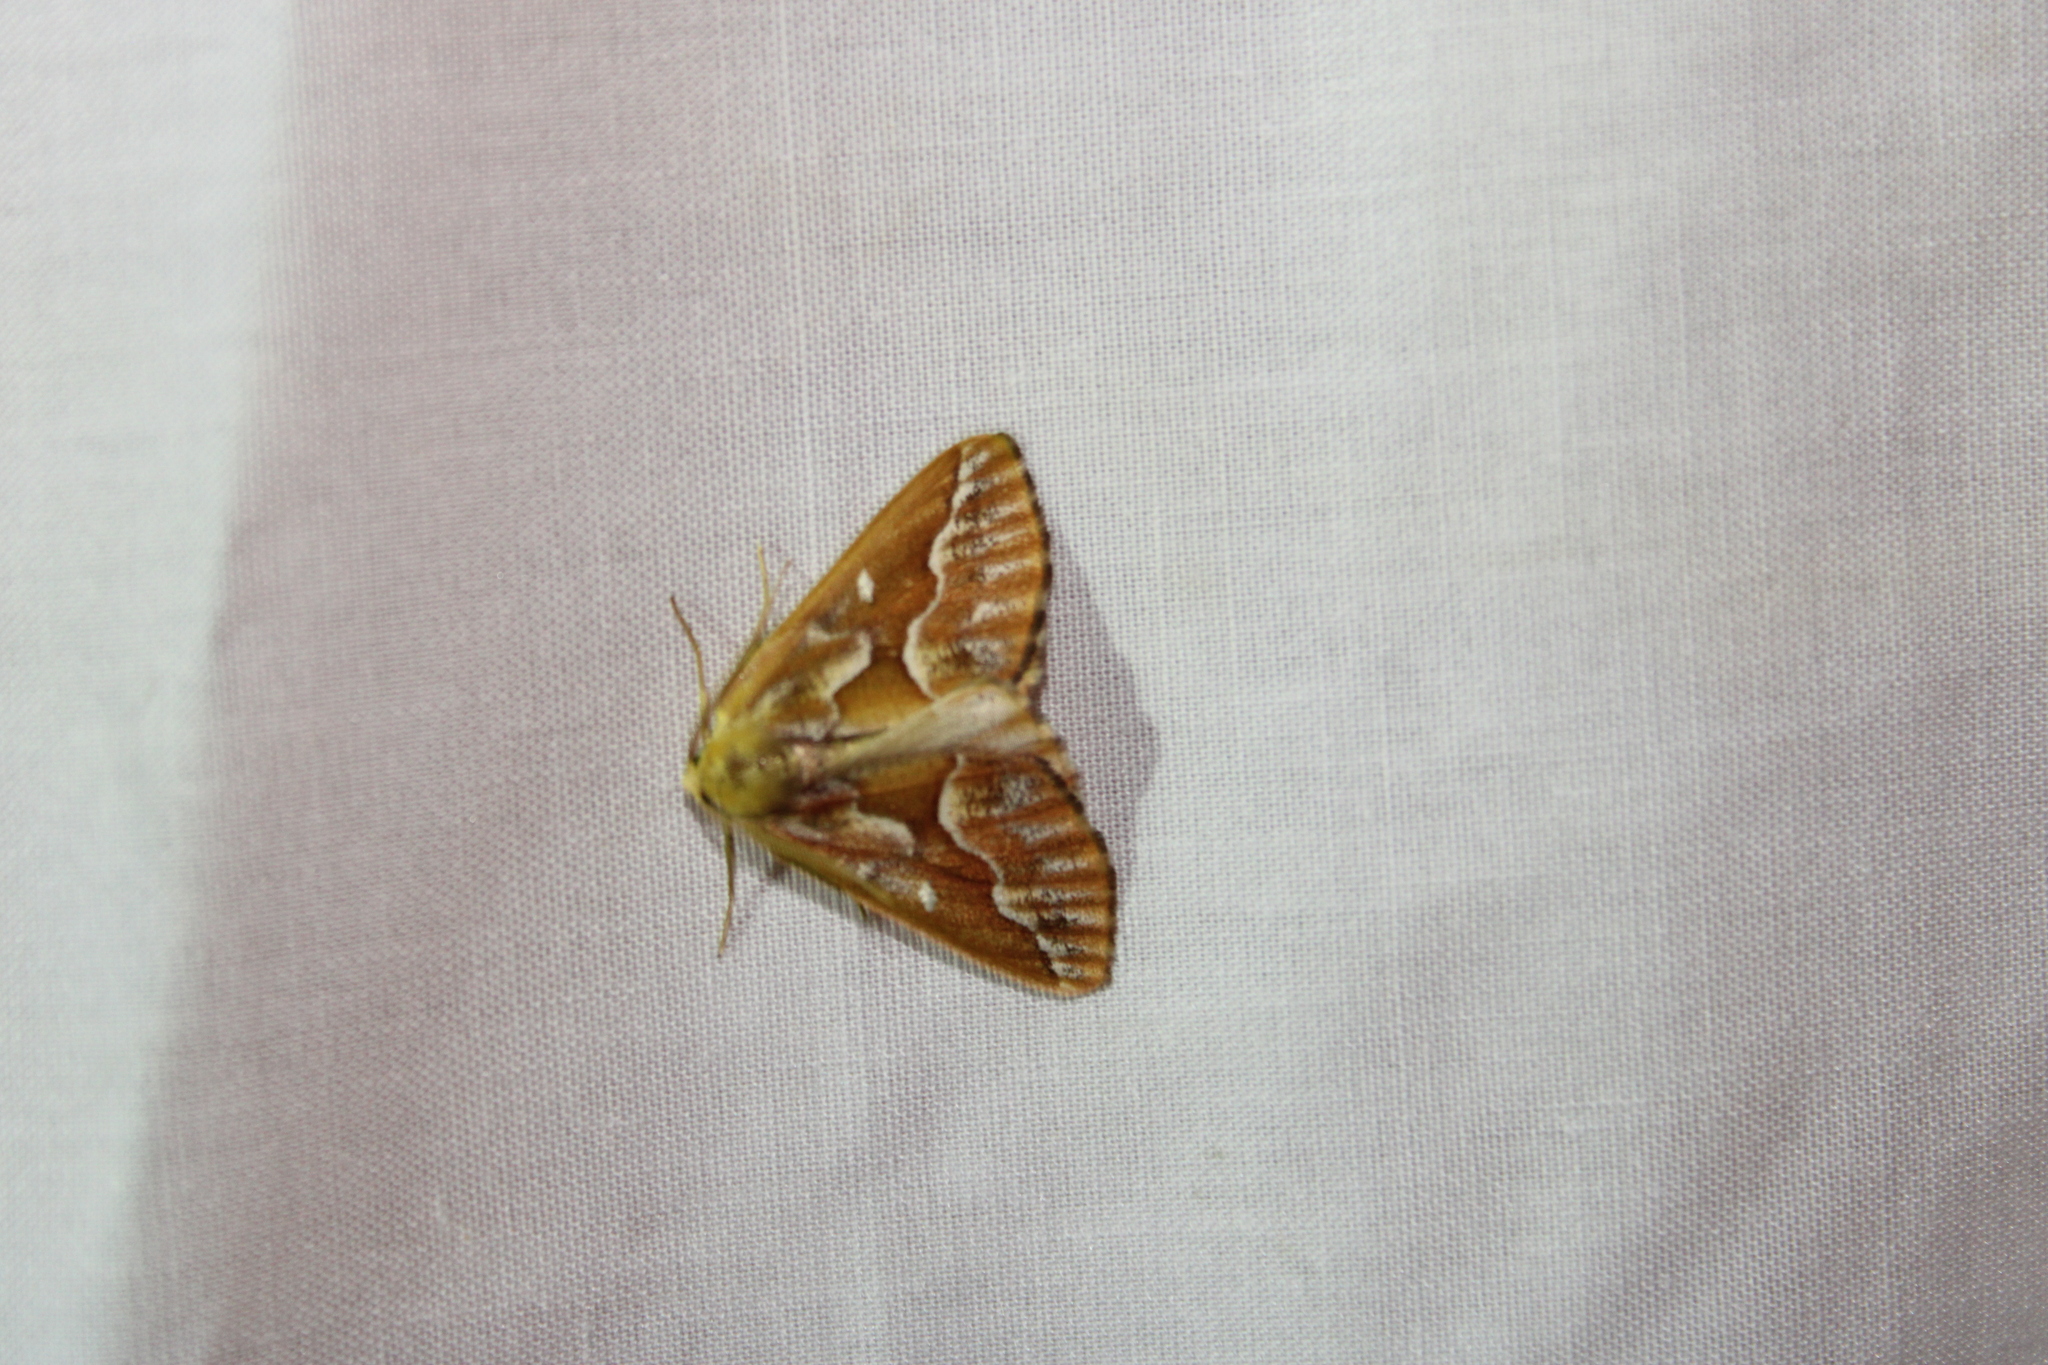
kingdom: Animalia
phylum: Arthropoda
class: Insecta
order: Lepidoptera
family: Geometridae
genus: Caripeta
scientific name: Caripeta piniata
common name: Northern pine looper moth
